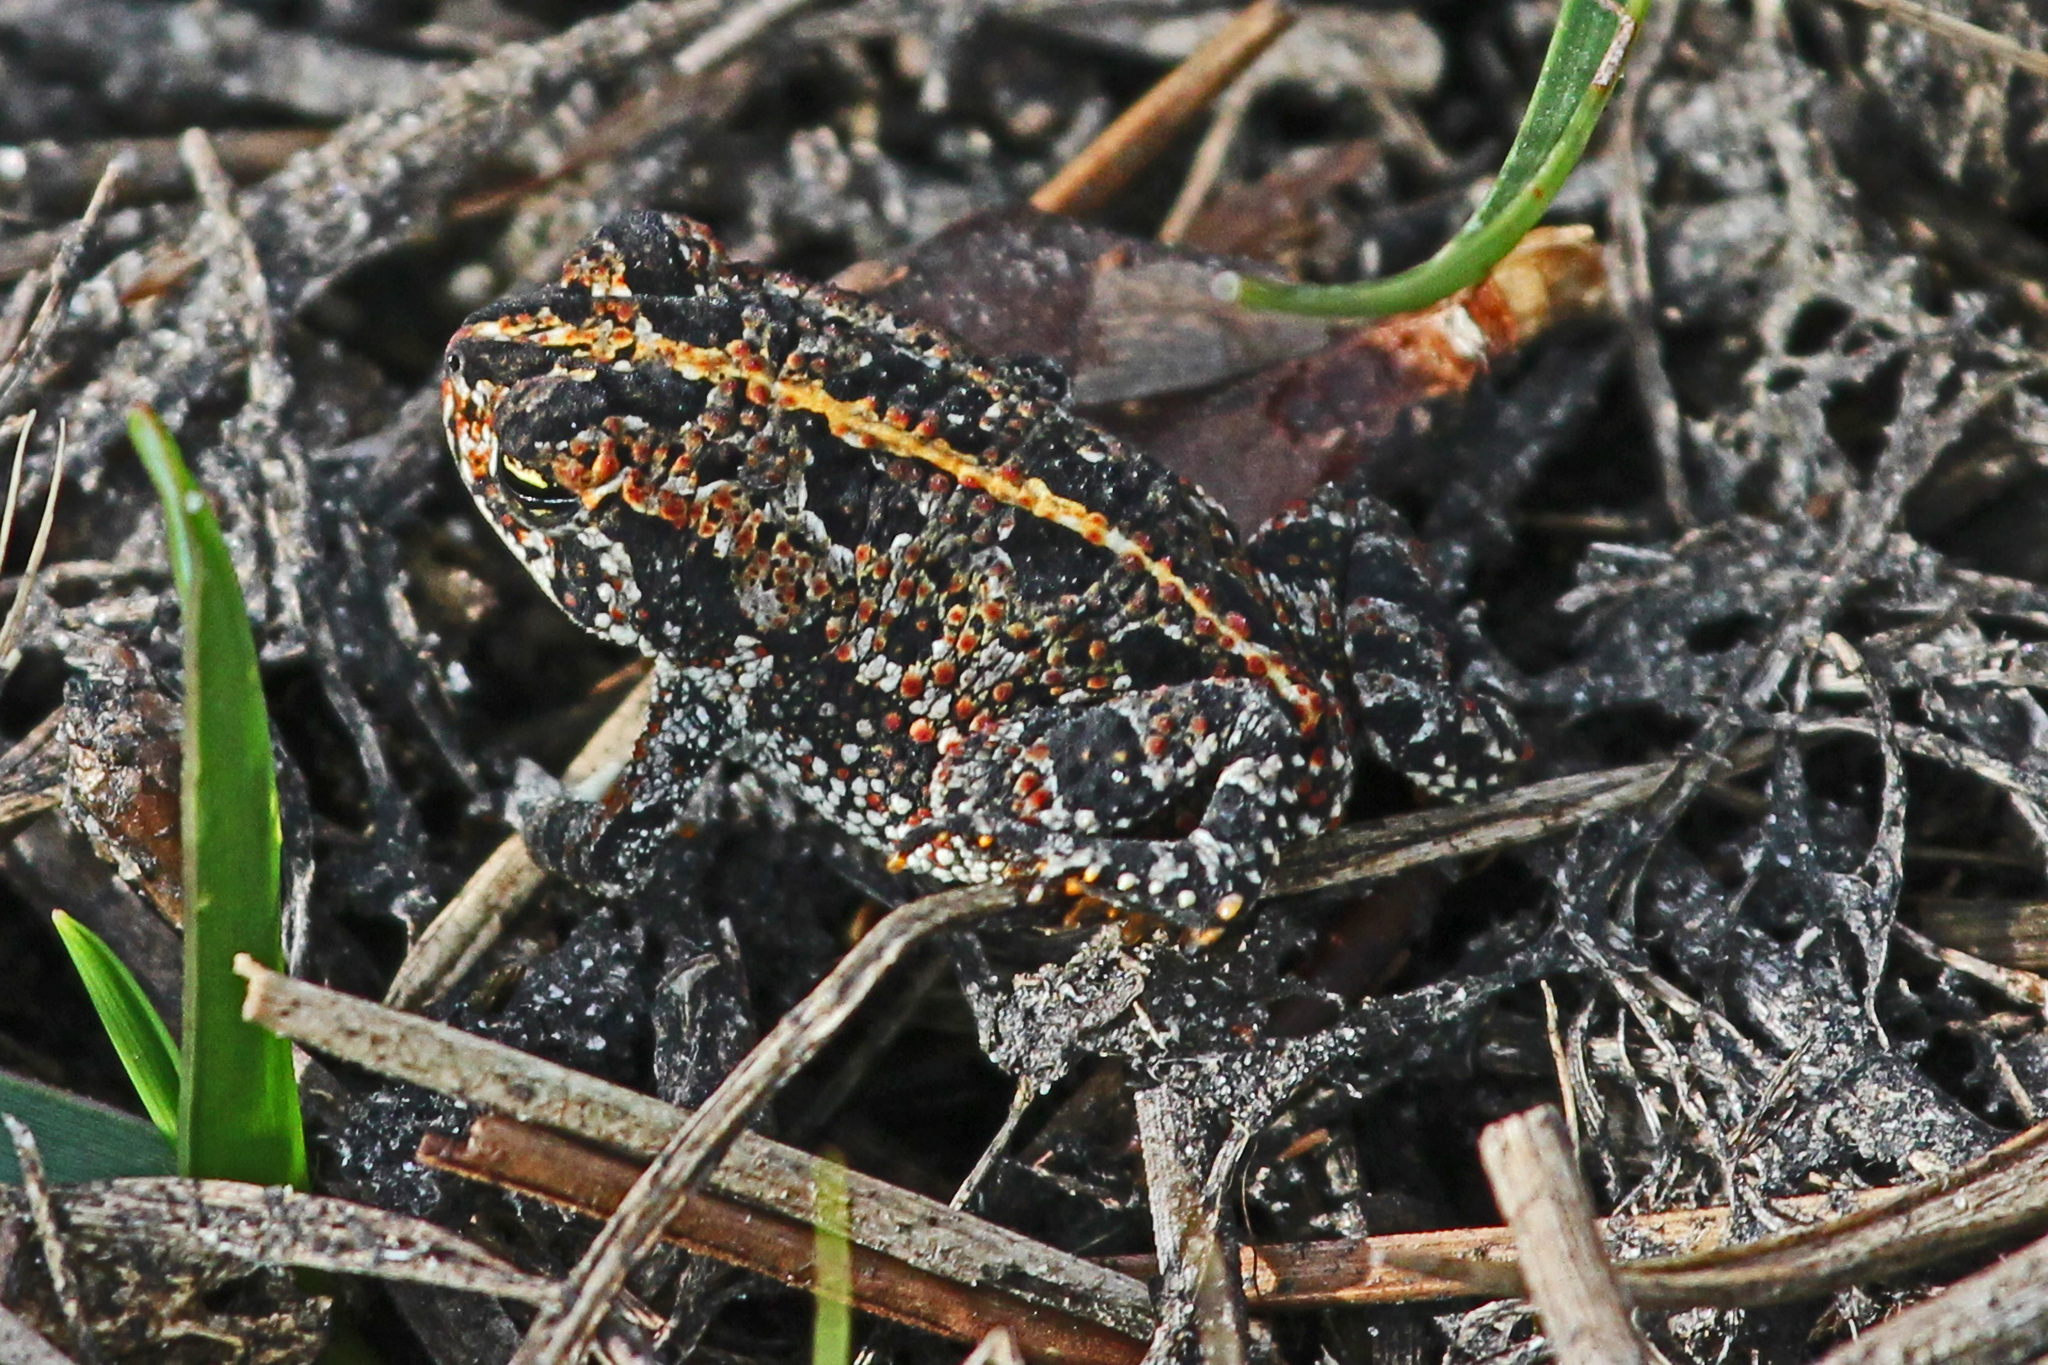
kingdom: Animalia
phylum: Chordata
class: Amphibia
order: Anura
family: Bufonidae
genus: Anaxyrus
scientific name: Anaxyrus quercicus
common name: Oak toad
